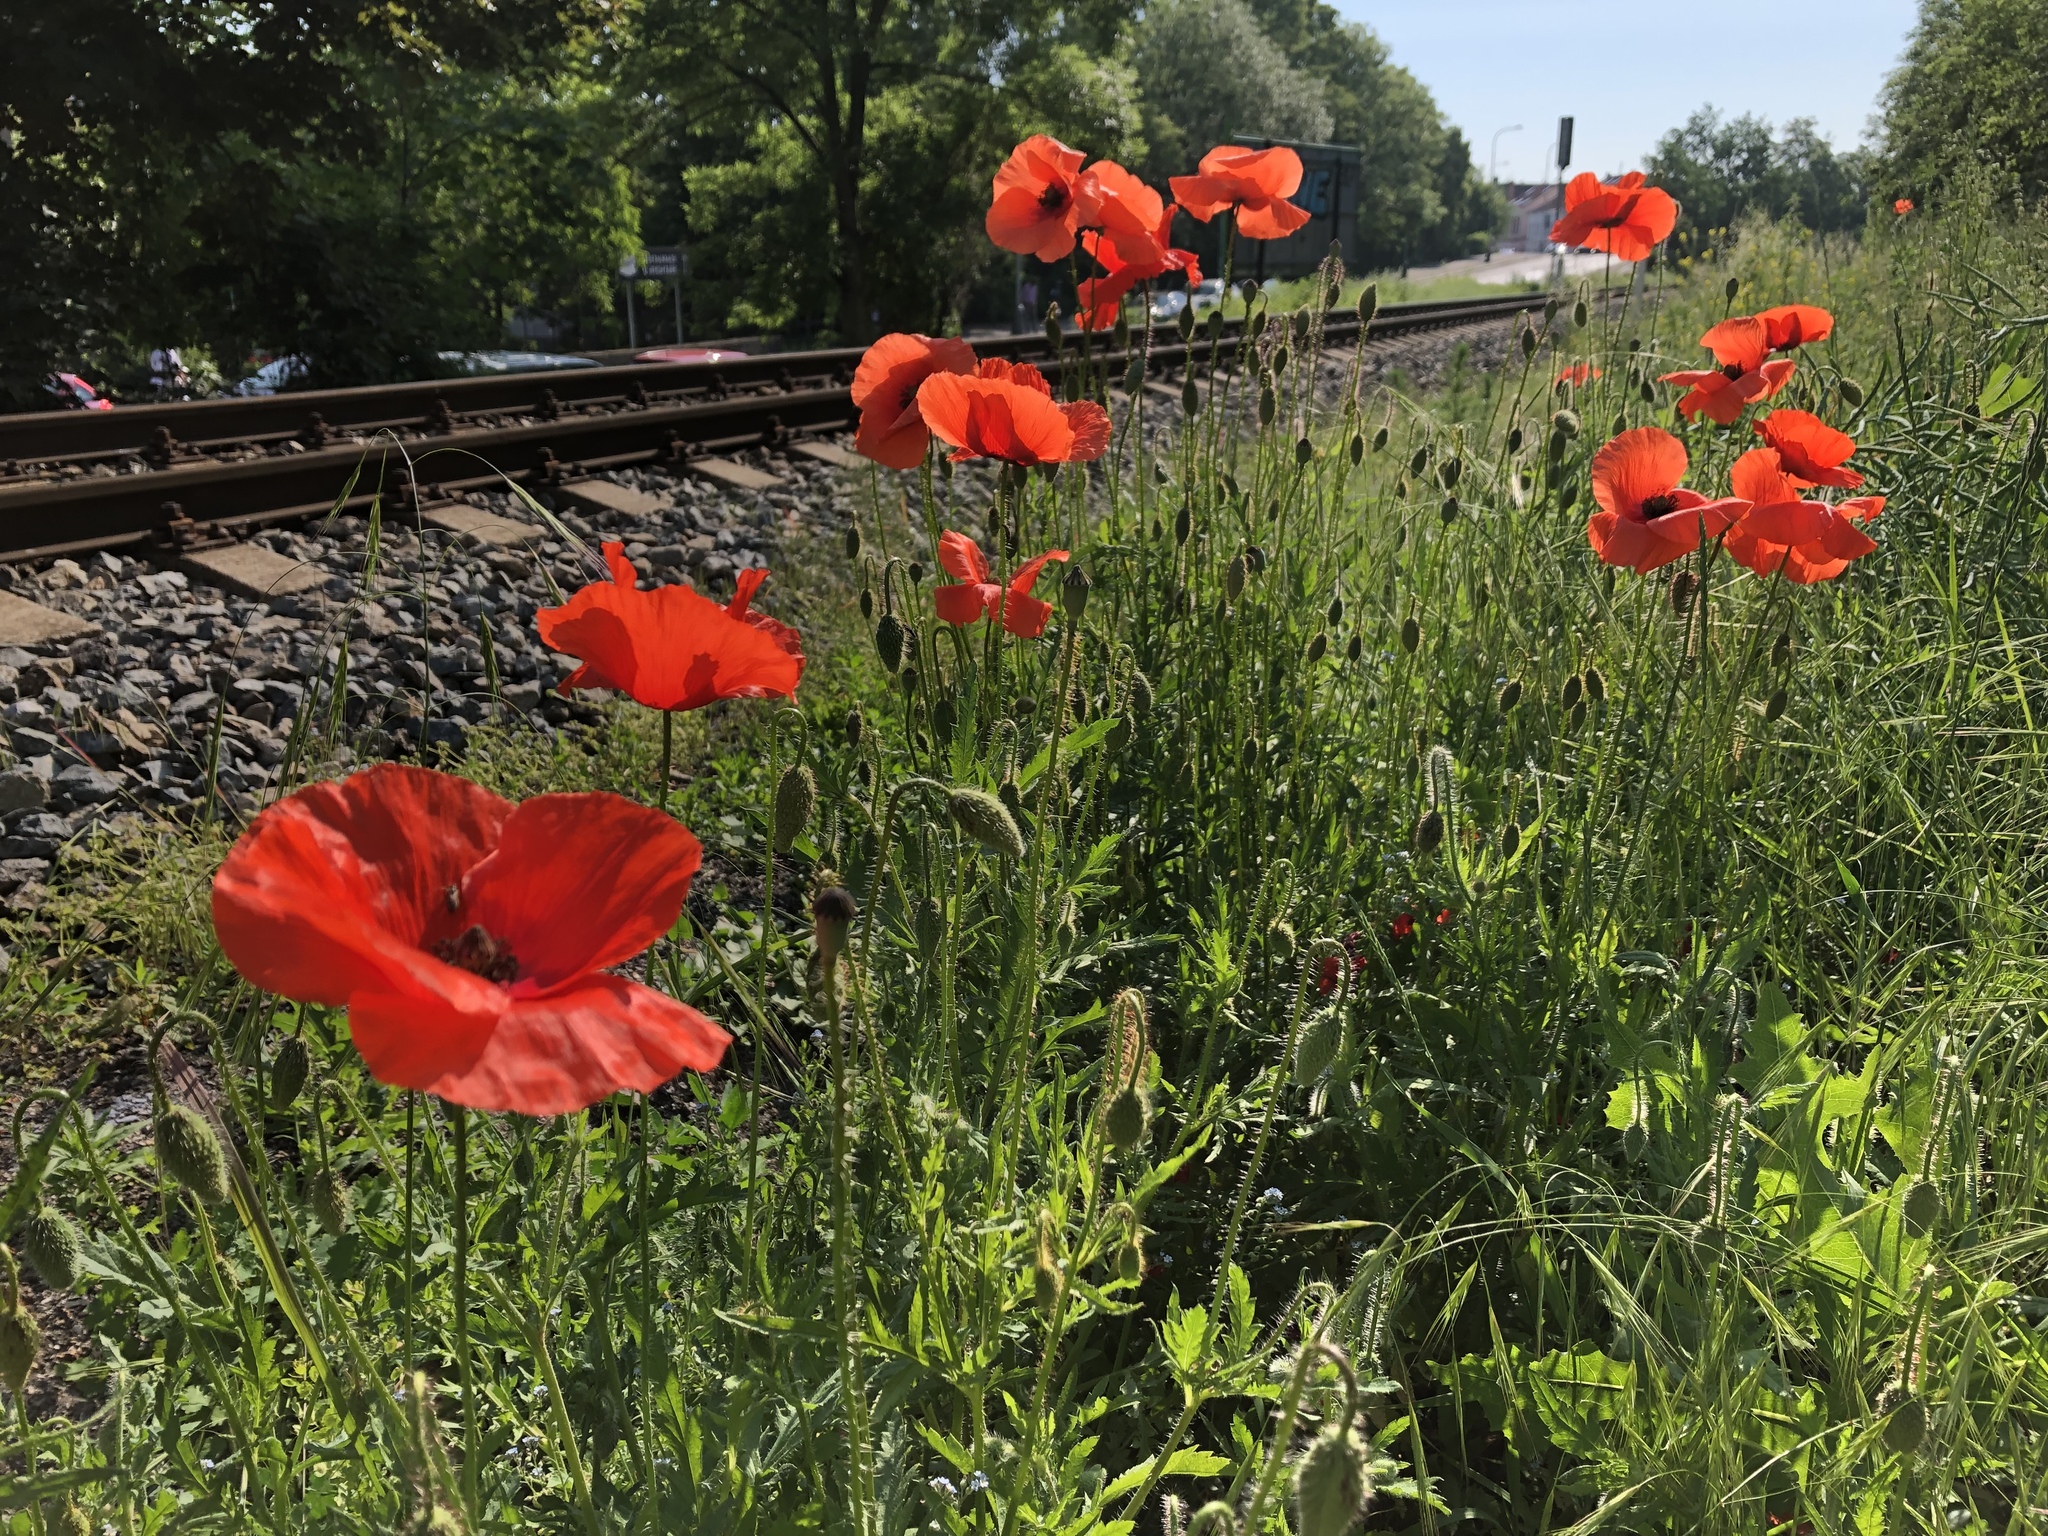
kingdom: Plantae
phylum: Tracheophyta
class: Magnoliopsida
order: Ranunculales
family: Papaveraceae
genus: Papaver
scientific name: Papaver rhoeas
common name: Corn poppy
